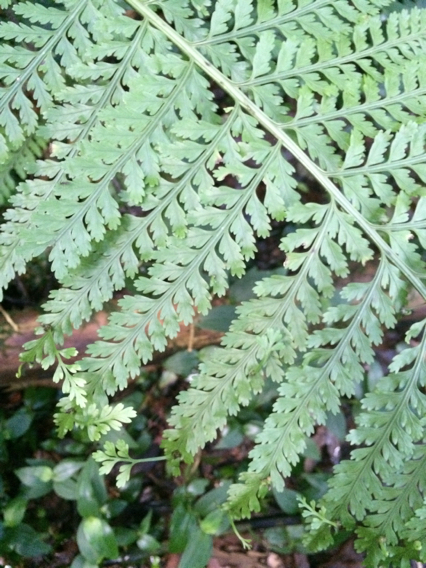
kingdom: Plantae
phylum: Tracheophyta
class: Polypodiopsida
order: Polypodiales
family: Aspleniaceae
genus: Asplenium
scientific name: Asplenium bulbiferum
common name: Mother fern
